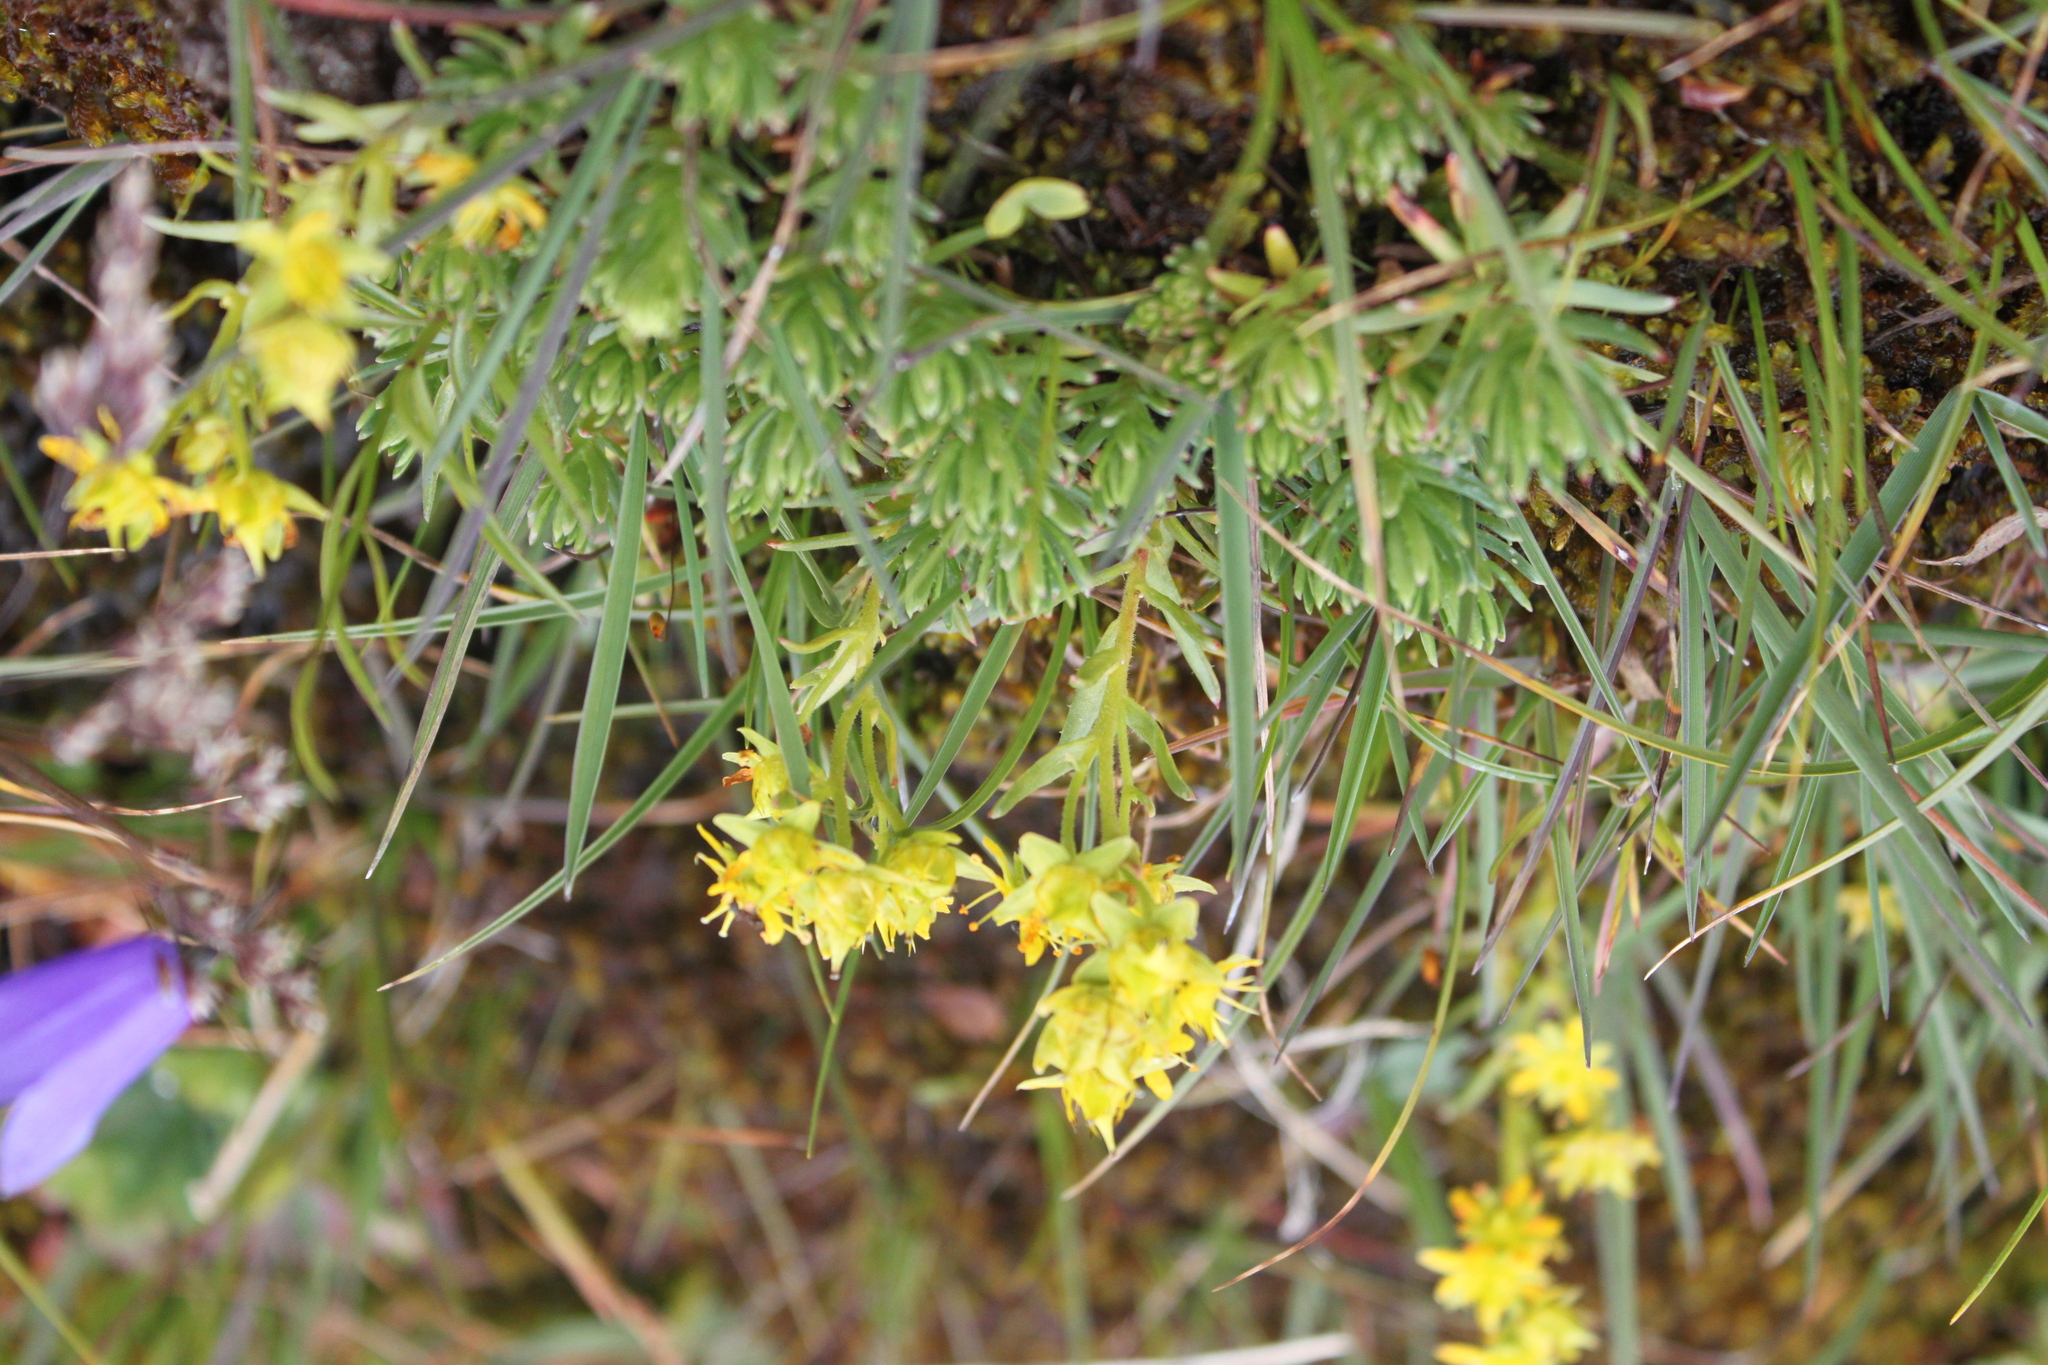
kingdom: Plantae
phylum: Tracheophyta
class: Magnoliopsida
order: Saxifragales
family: Saxifragaceae
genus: Saxifraga
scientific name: Saxifraga aizoides
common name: Yellow mountain saxifrage
